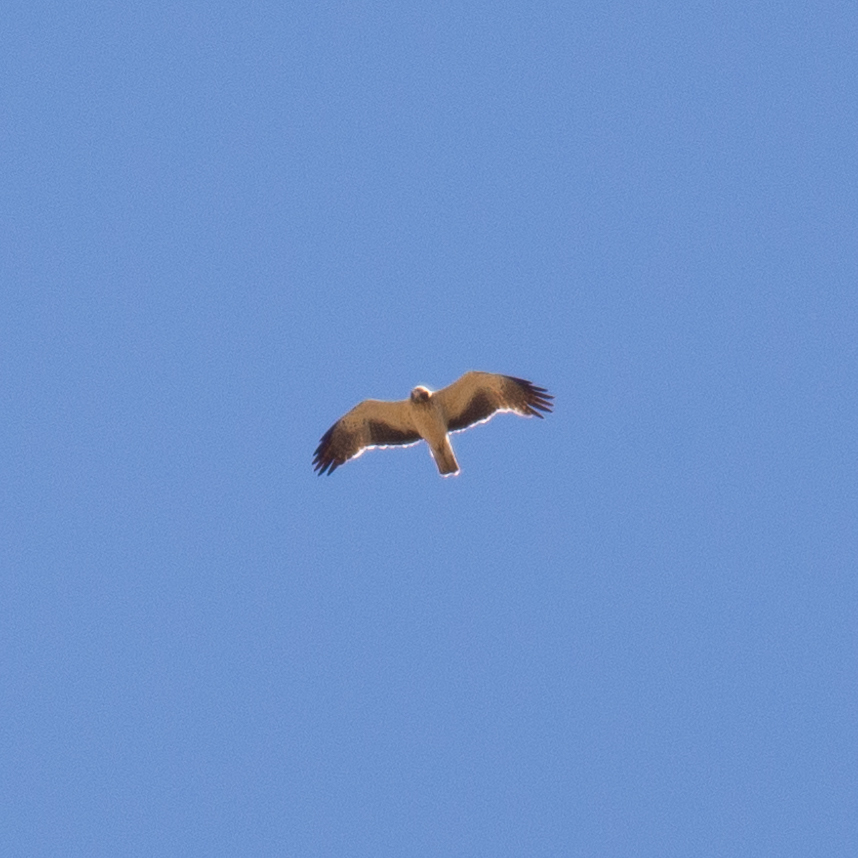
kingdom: Animalia
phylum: Chordata
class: Aves
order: Accipitriformes
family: Accipitridae
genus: Hieraaetus
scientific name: Hieraaetus pennatus
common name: Booted eagle
